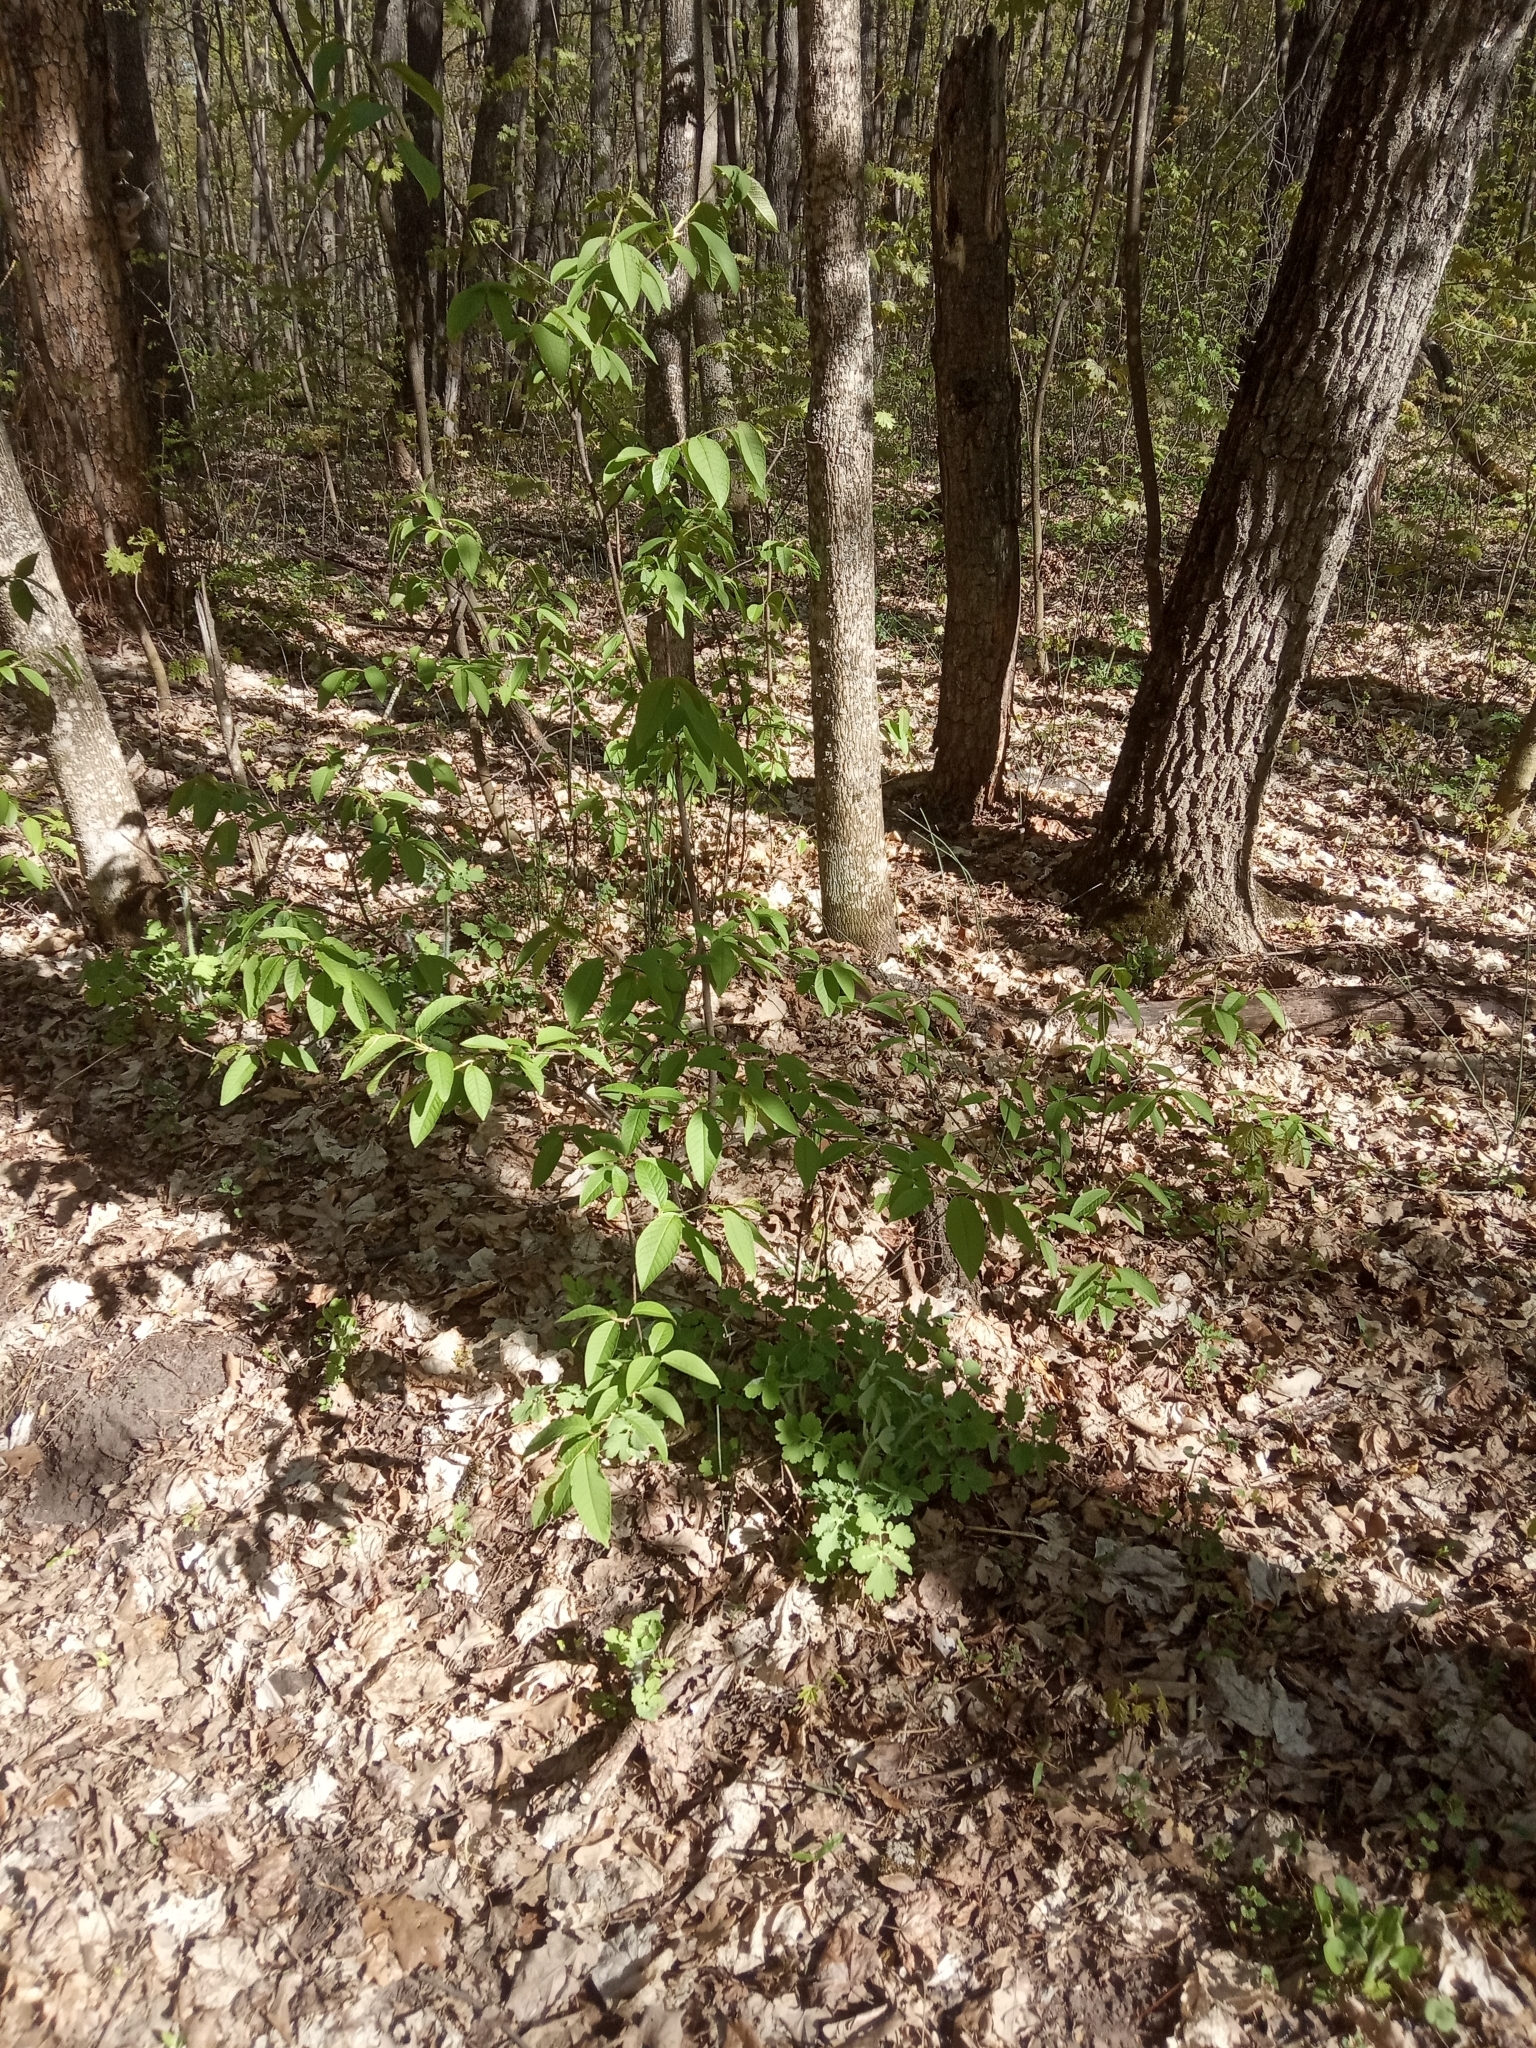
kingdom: Plantae
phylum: Tracheophyta
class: Magnoliopsida
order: Rosales
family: Rosaceae
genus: Prunus
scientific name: Prunus padus
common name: Bird cherry
